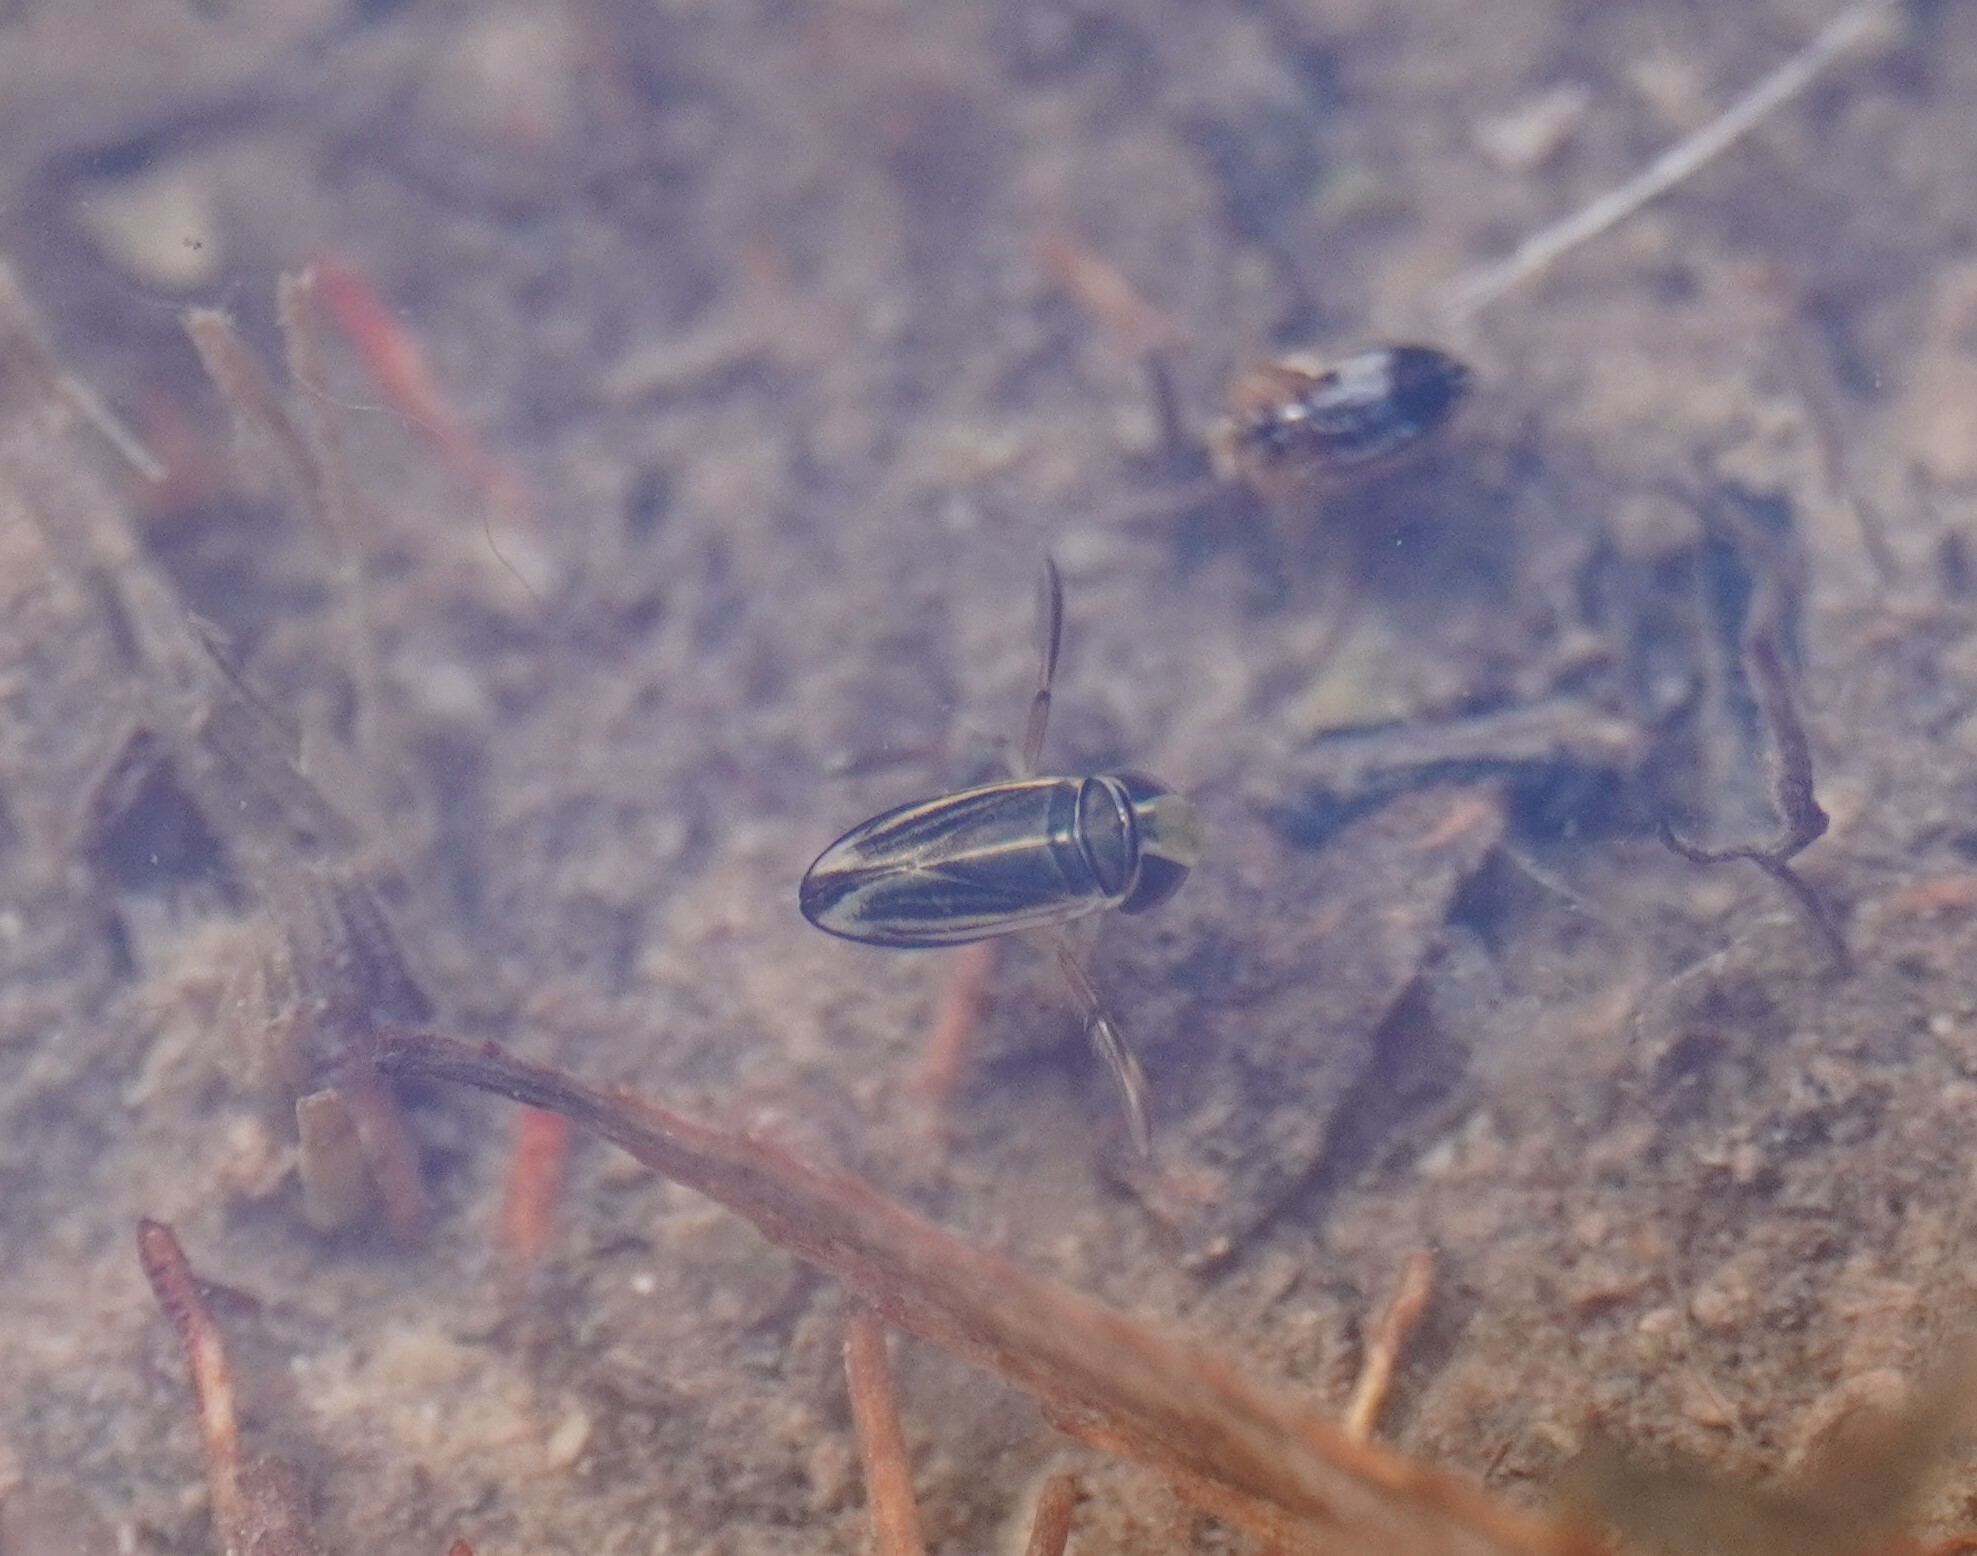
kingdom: Animalia
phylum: Arthropoda
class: Insecta
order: Hemiptera
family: Corixidae
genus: Cymatia
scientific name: Cymatia coleoptrata
